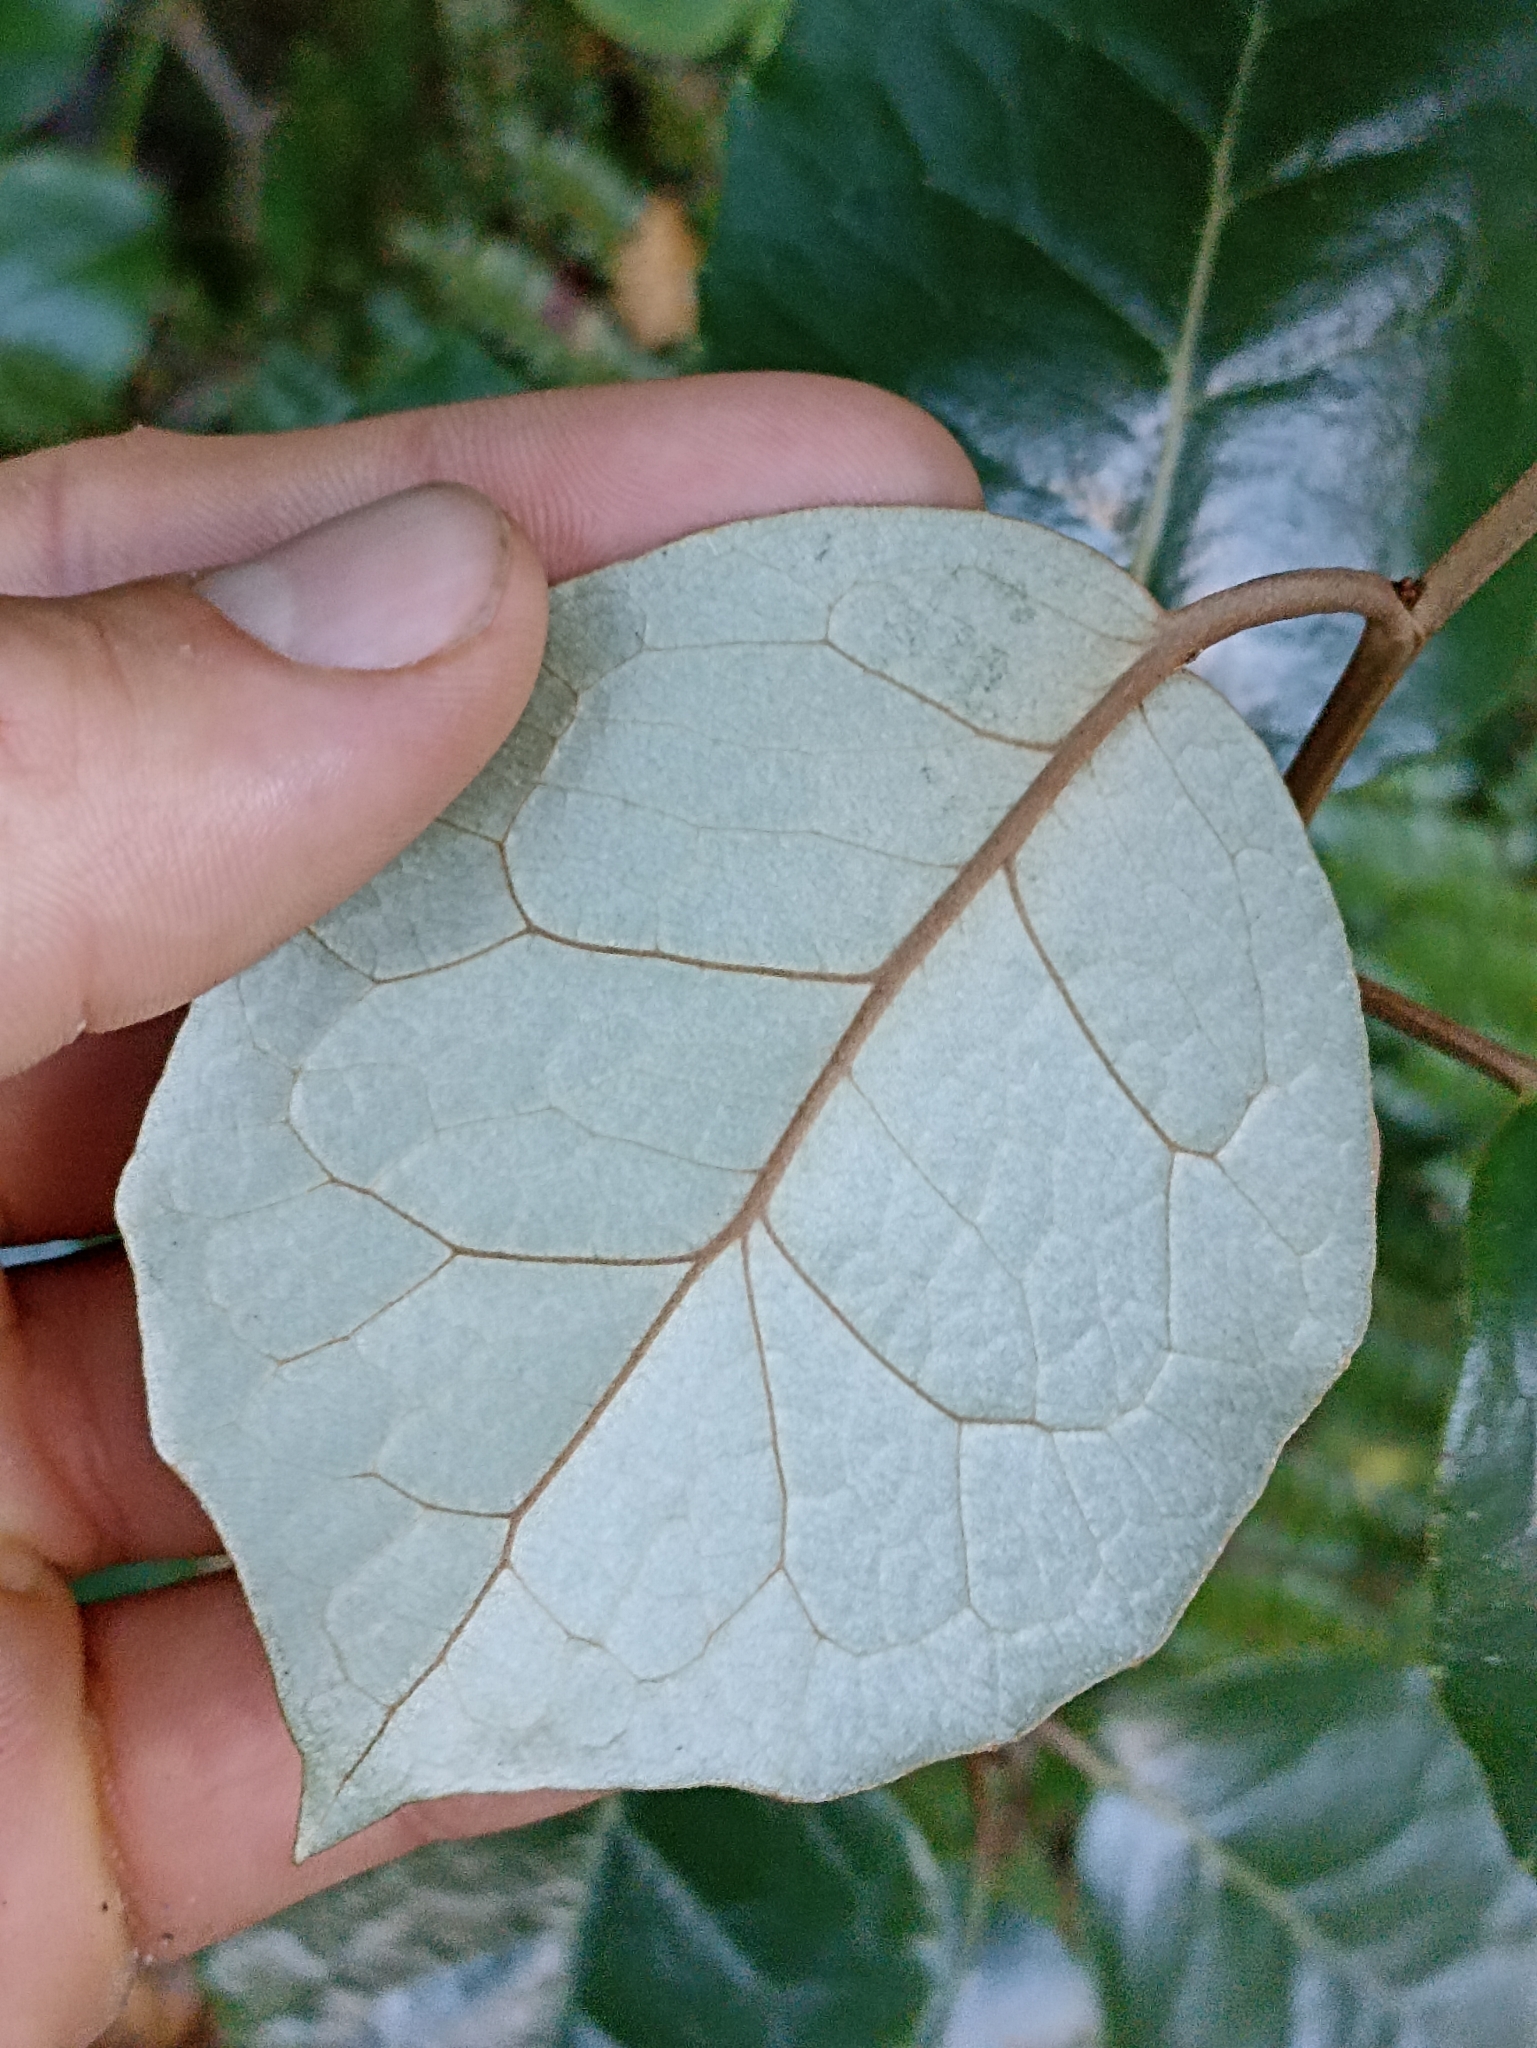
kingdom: Plantae
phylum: Tracheophyta
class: Magnoliopsida
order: Asterales
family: Asteraceae
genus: Olearia
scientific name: Olearia arborescens
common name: Glossy tree daisy
